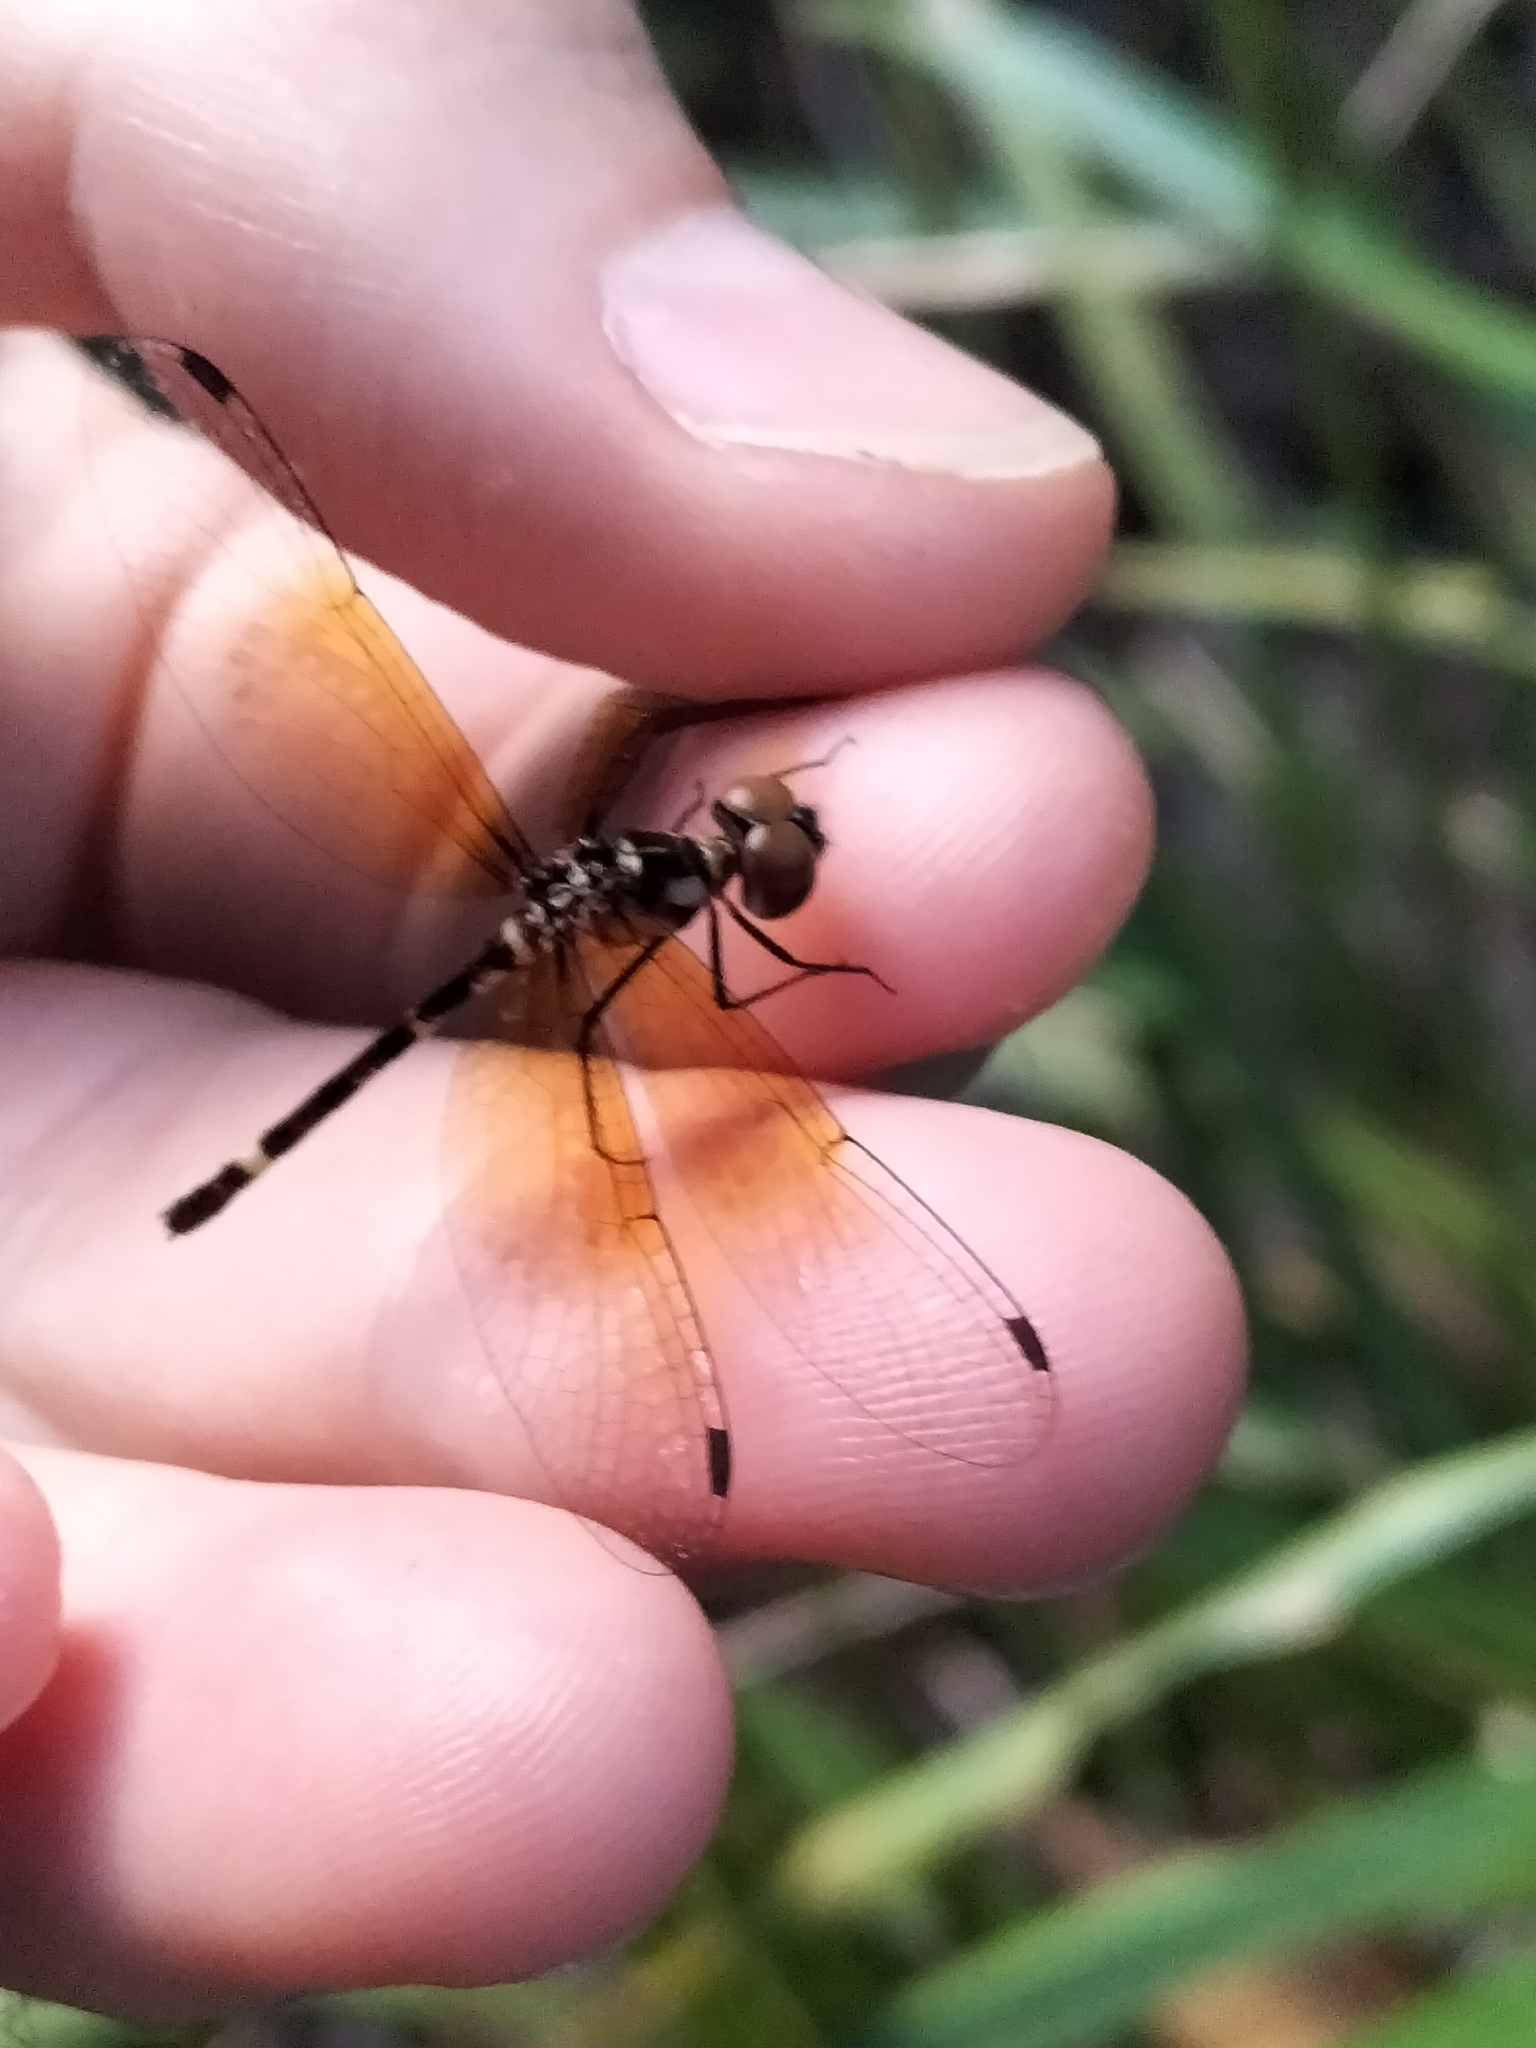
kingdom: Animalia
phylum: Arthropoda
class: Insecta
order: Odonata
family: Libellulidae
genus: Tetrathemis
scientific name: Tetrathemis irregularis
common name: Elf
